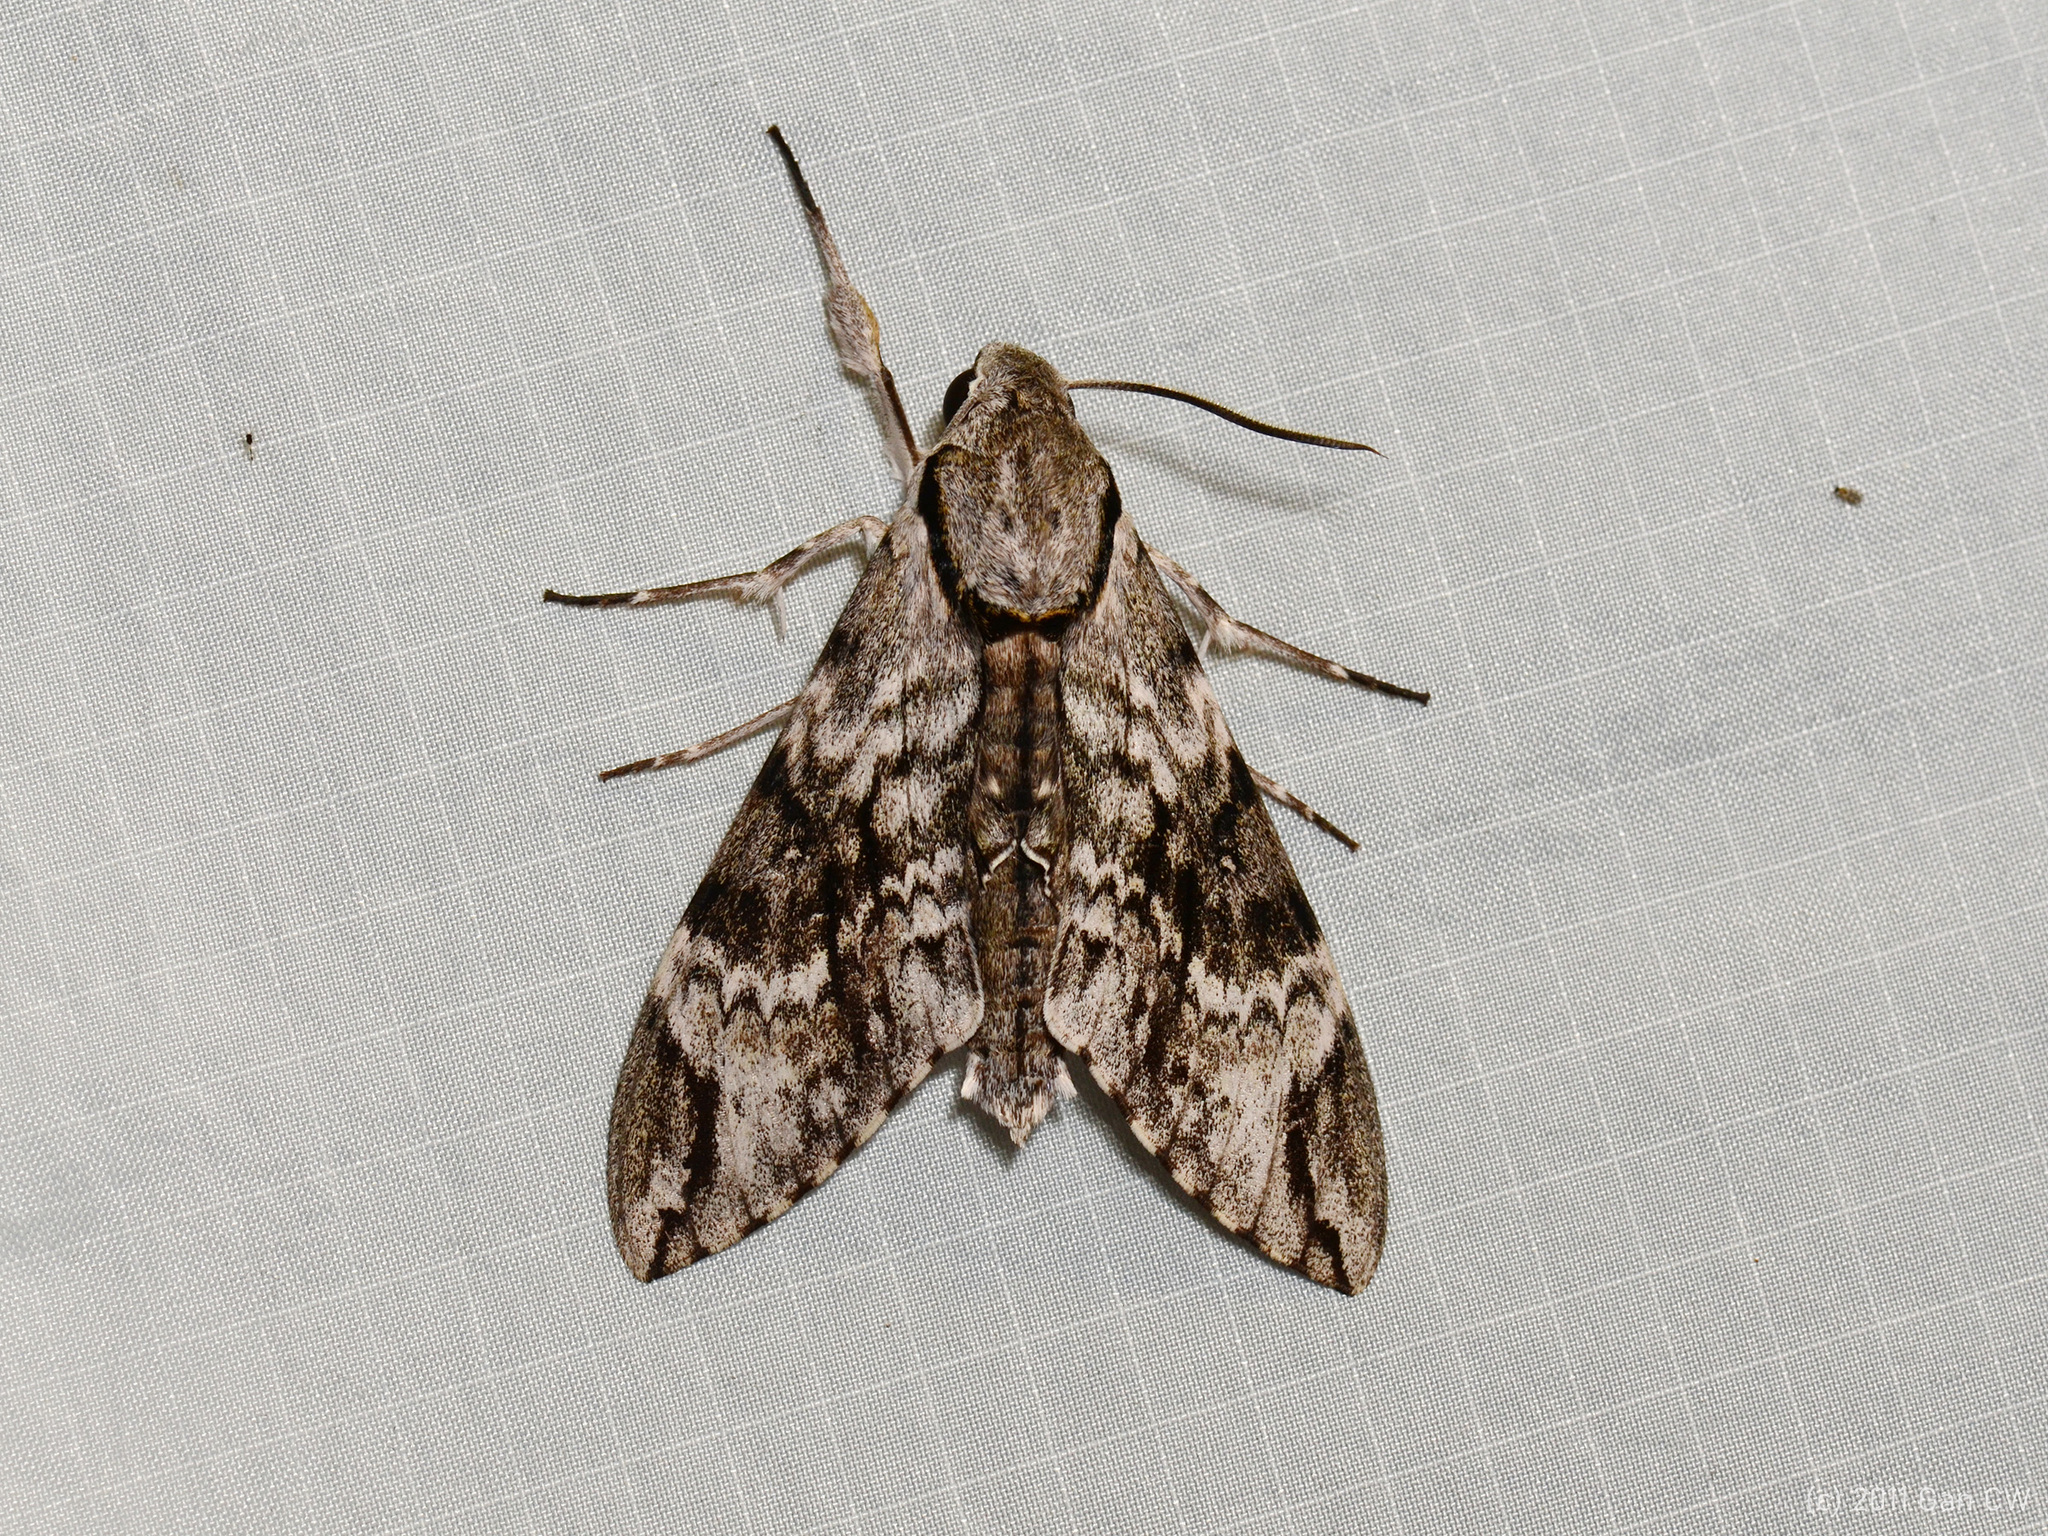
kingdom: Animalia
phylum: Arthropoda
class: Insecta
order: Lepidoptera
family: Sphingidae
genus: Psilogramma
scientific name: Psilogramma discistriga
